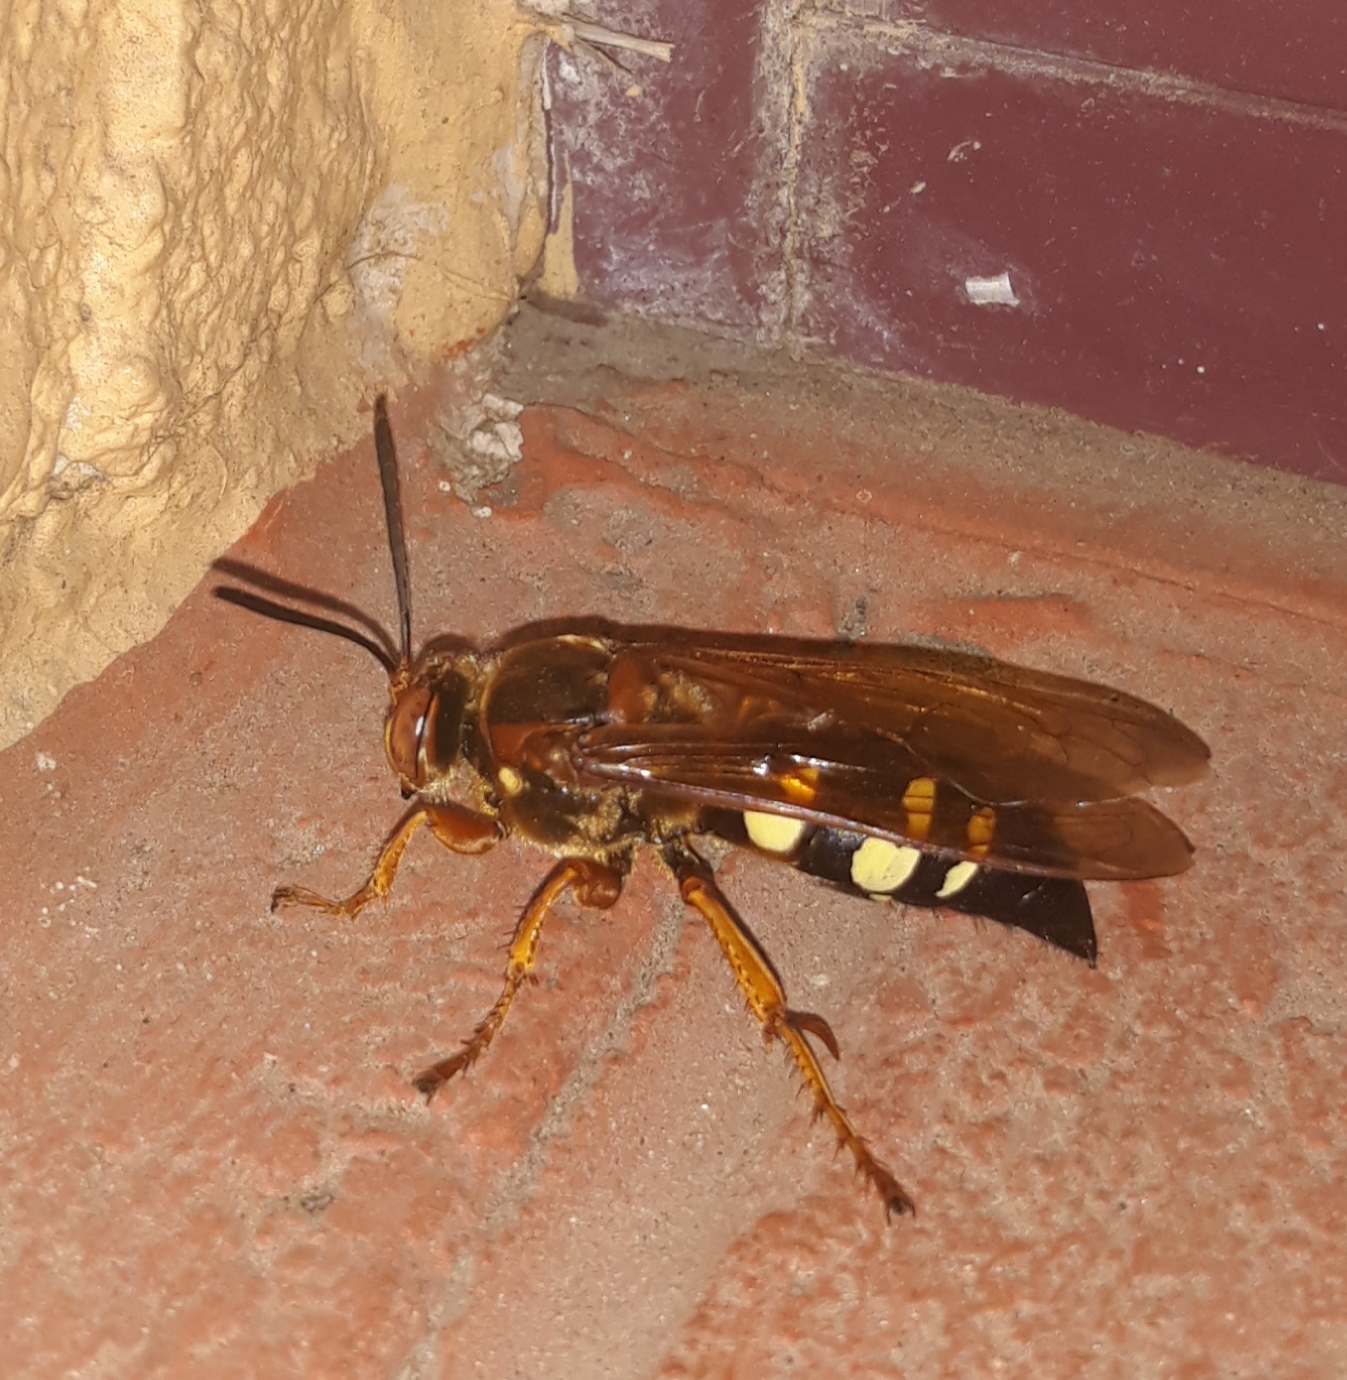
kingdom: Animalia
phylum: Arthropoda
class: Insecta
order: Hymenoptera
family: Crabronidae
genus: Sphecius
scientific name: Sphecius speciosus
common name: Cicada killer
